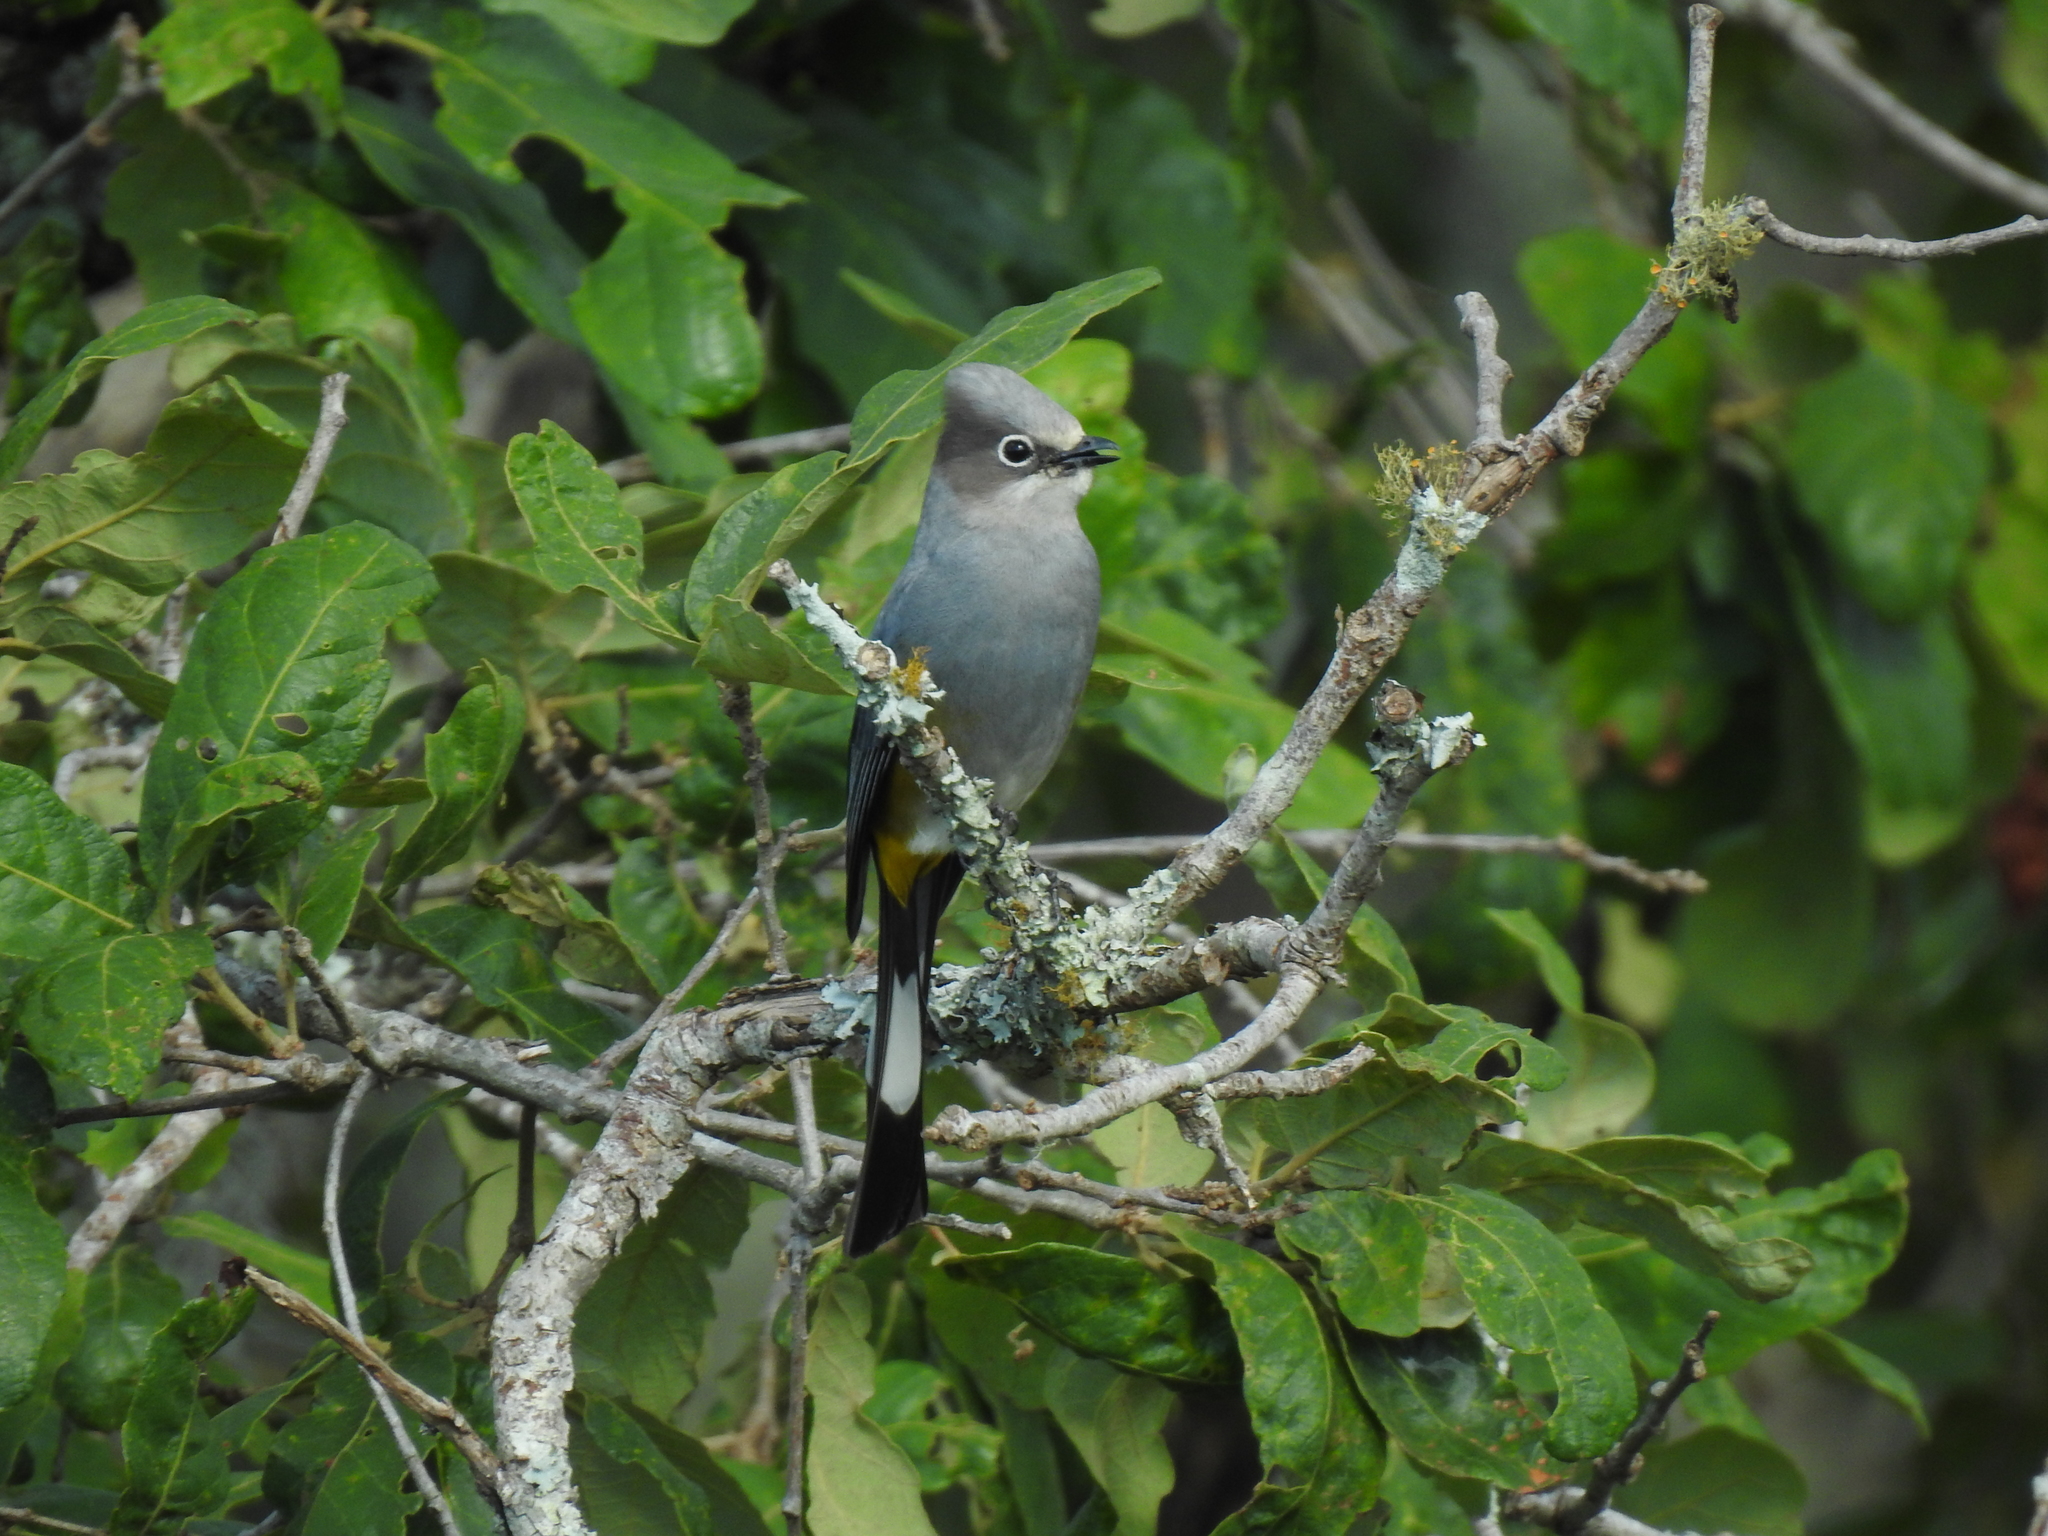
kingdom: Animalia
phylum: Chordata
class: Aves
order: Passeriformes
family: Ptilogonatidae
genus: Ptilogonys
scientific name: Ptilogonys cinereus
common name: Gray silky-flycatcher
